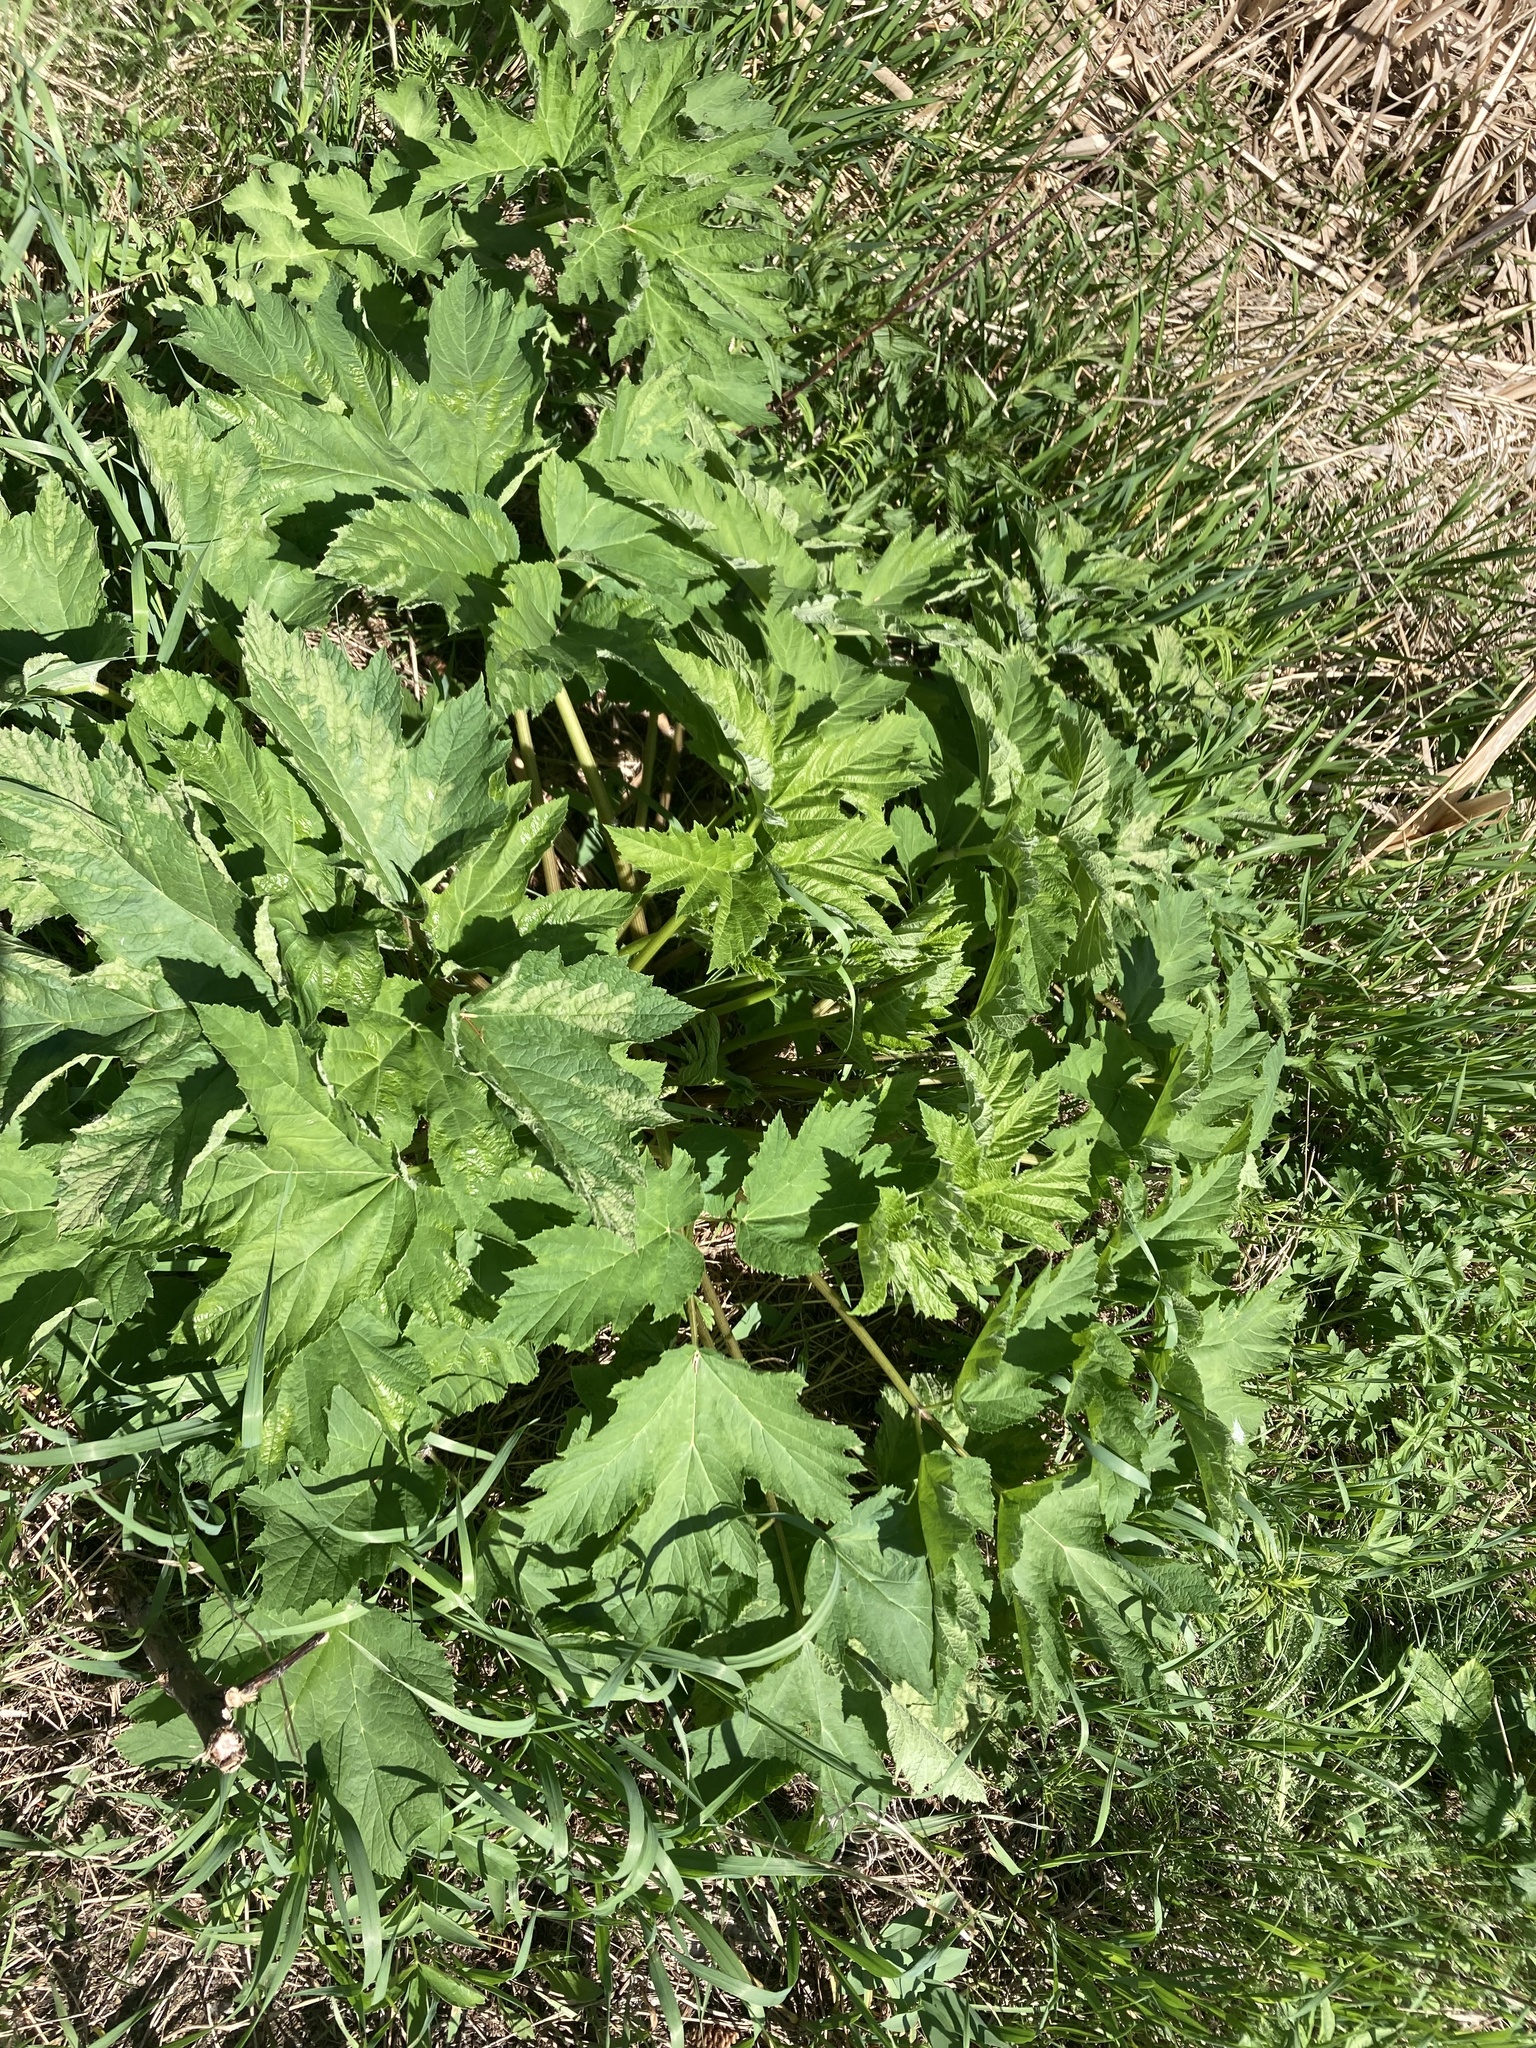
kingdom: Plantae
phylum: Tracheophyta
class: Magnoliopsida
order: Apiales
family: Apiaceae
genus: Heracleum
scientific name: Heracleum maximum
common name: American cow parsnip
